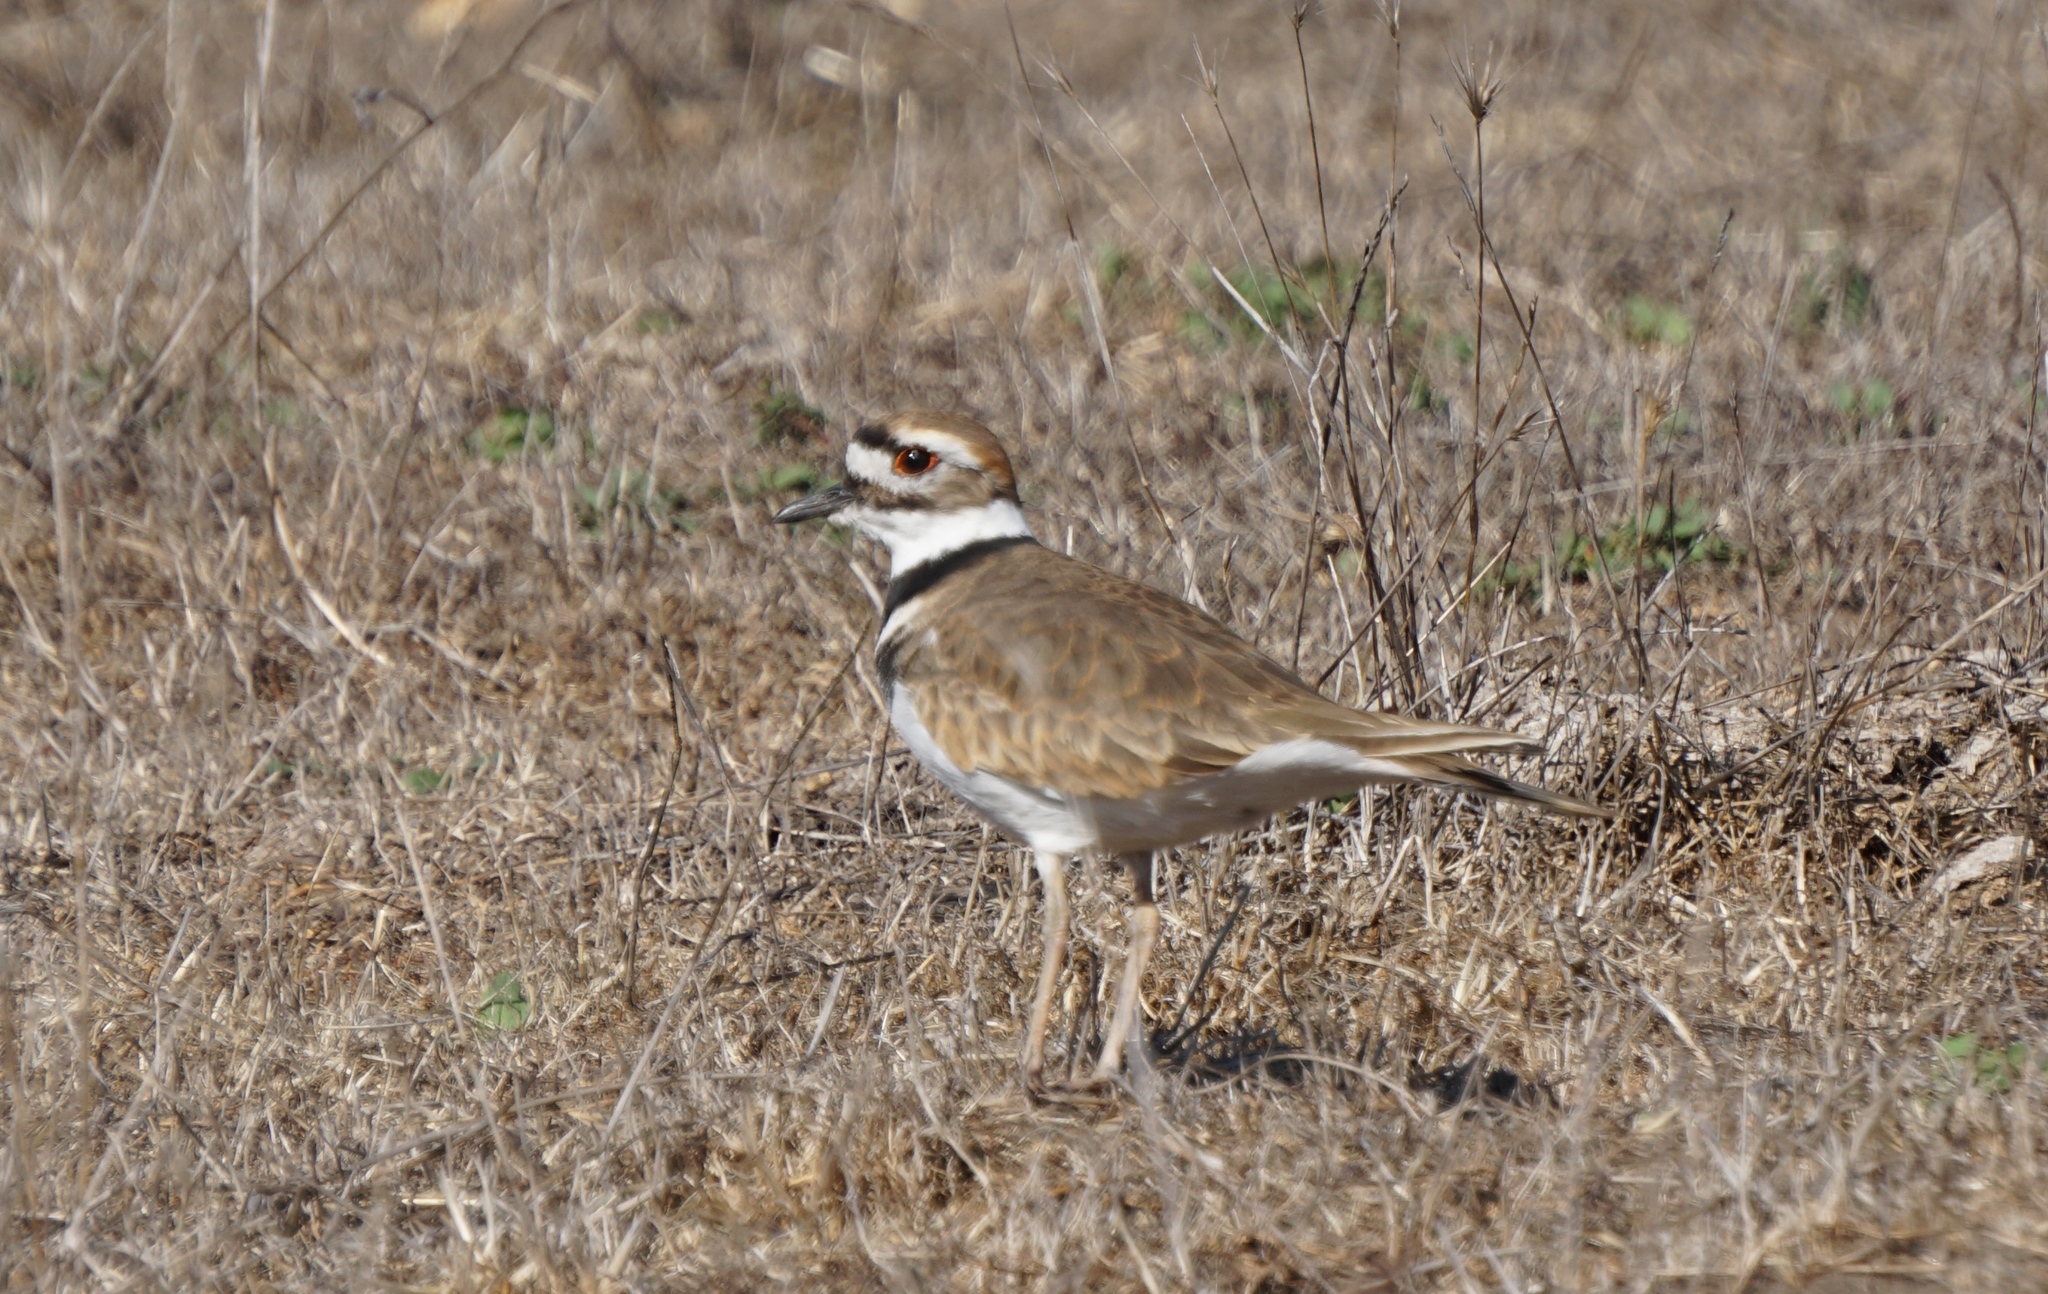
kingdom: Animalia
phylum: Chordata
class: Aves
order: Charadriiformes
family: Charadriidae
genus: Charadrius
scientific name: Charadrius vociferus
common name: Killdeer
